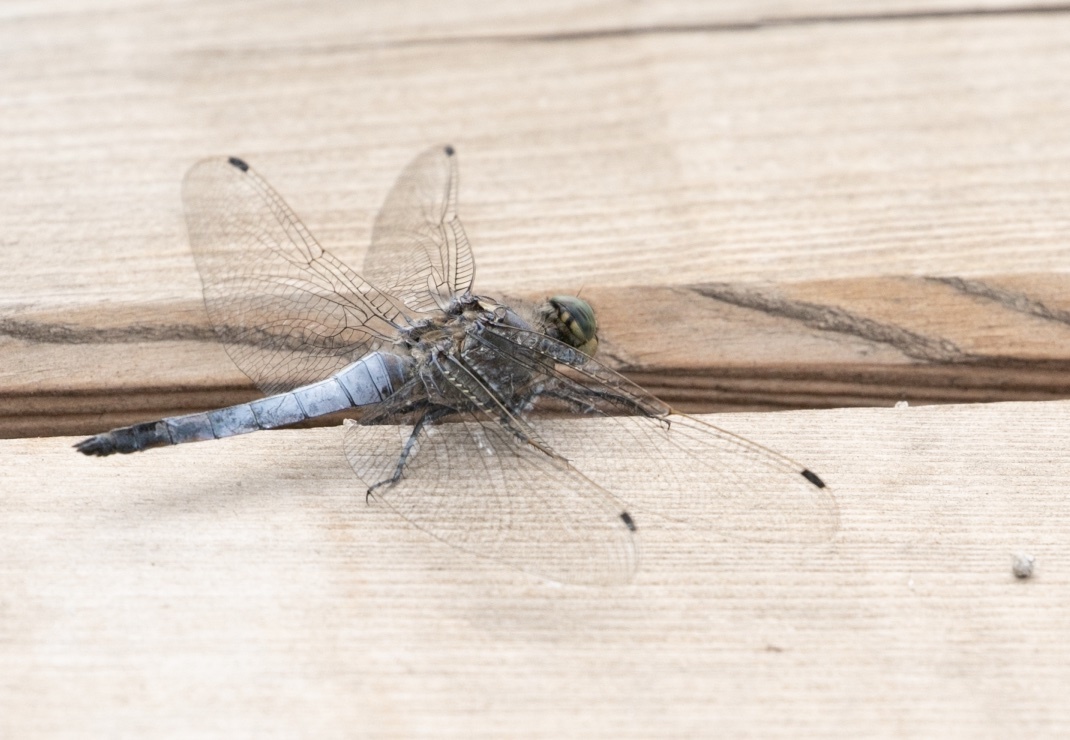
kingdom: Animalia
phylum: Arthropoda
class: Insecta
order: Odonata
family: Libellulidae
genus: Orthetrum
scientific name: Orthetrum cancellatum
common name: Black-tailed skimmer
